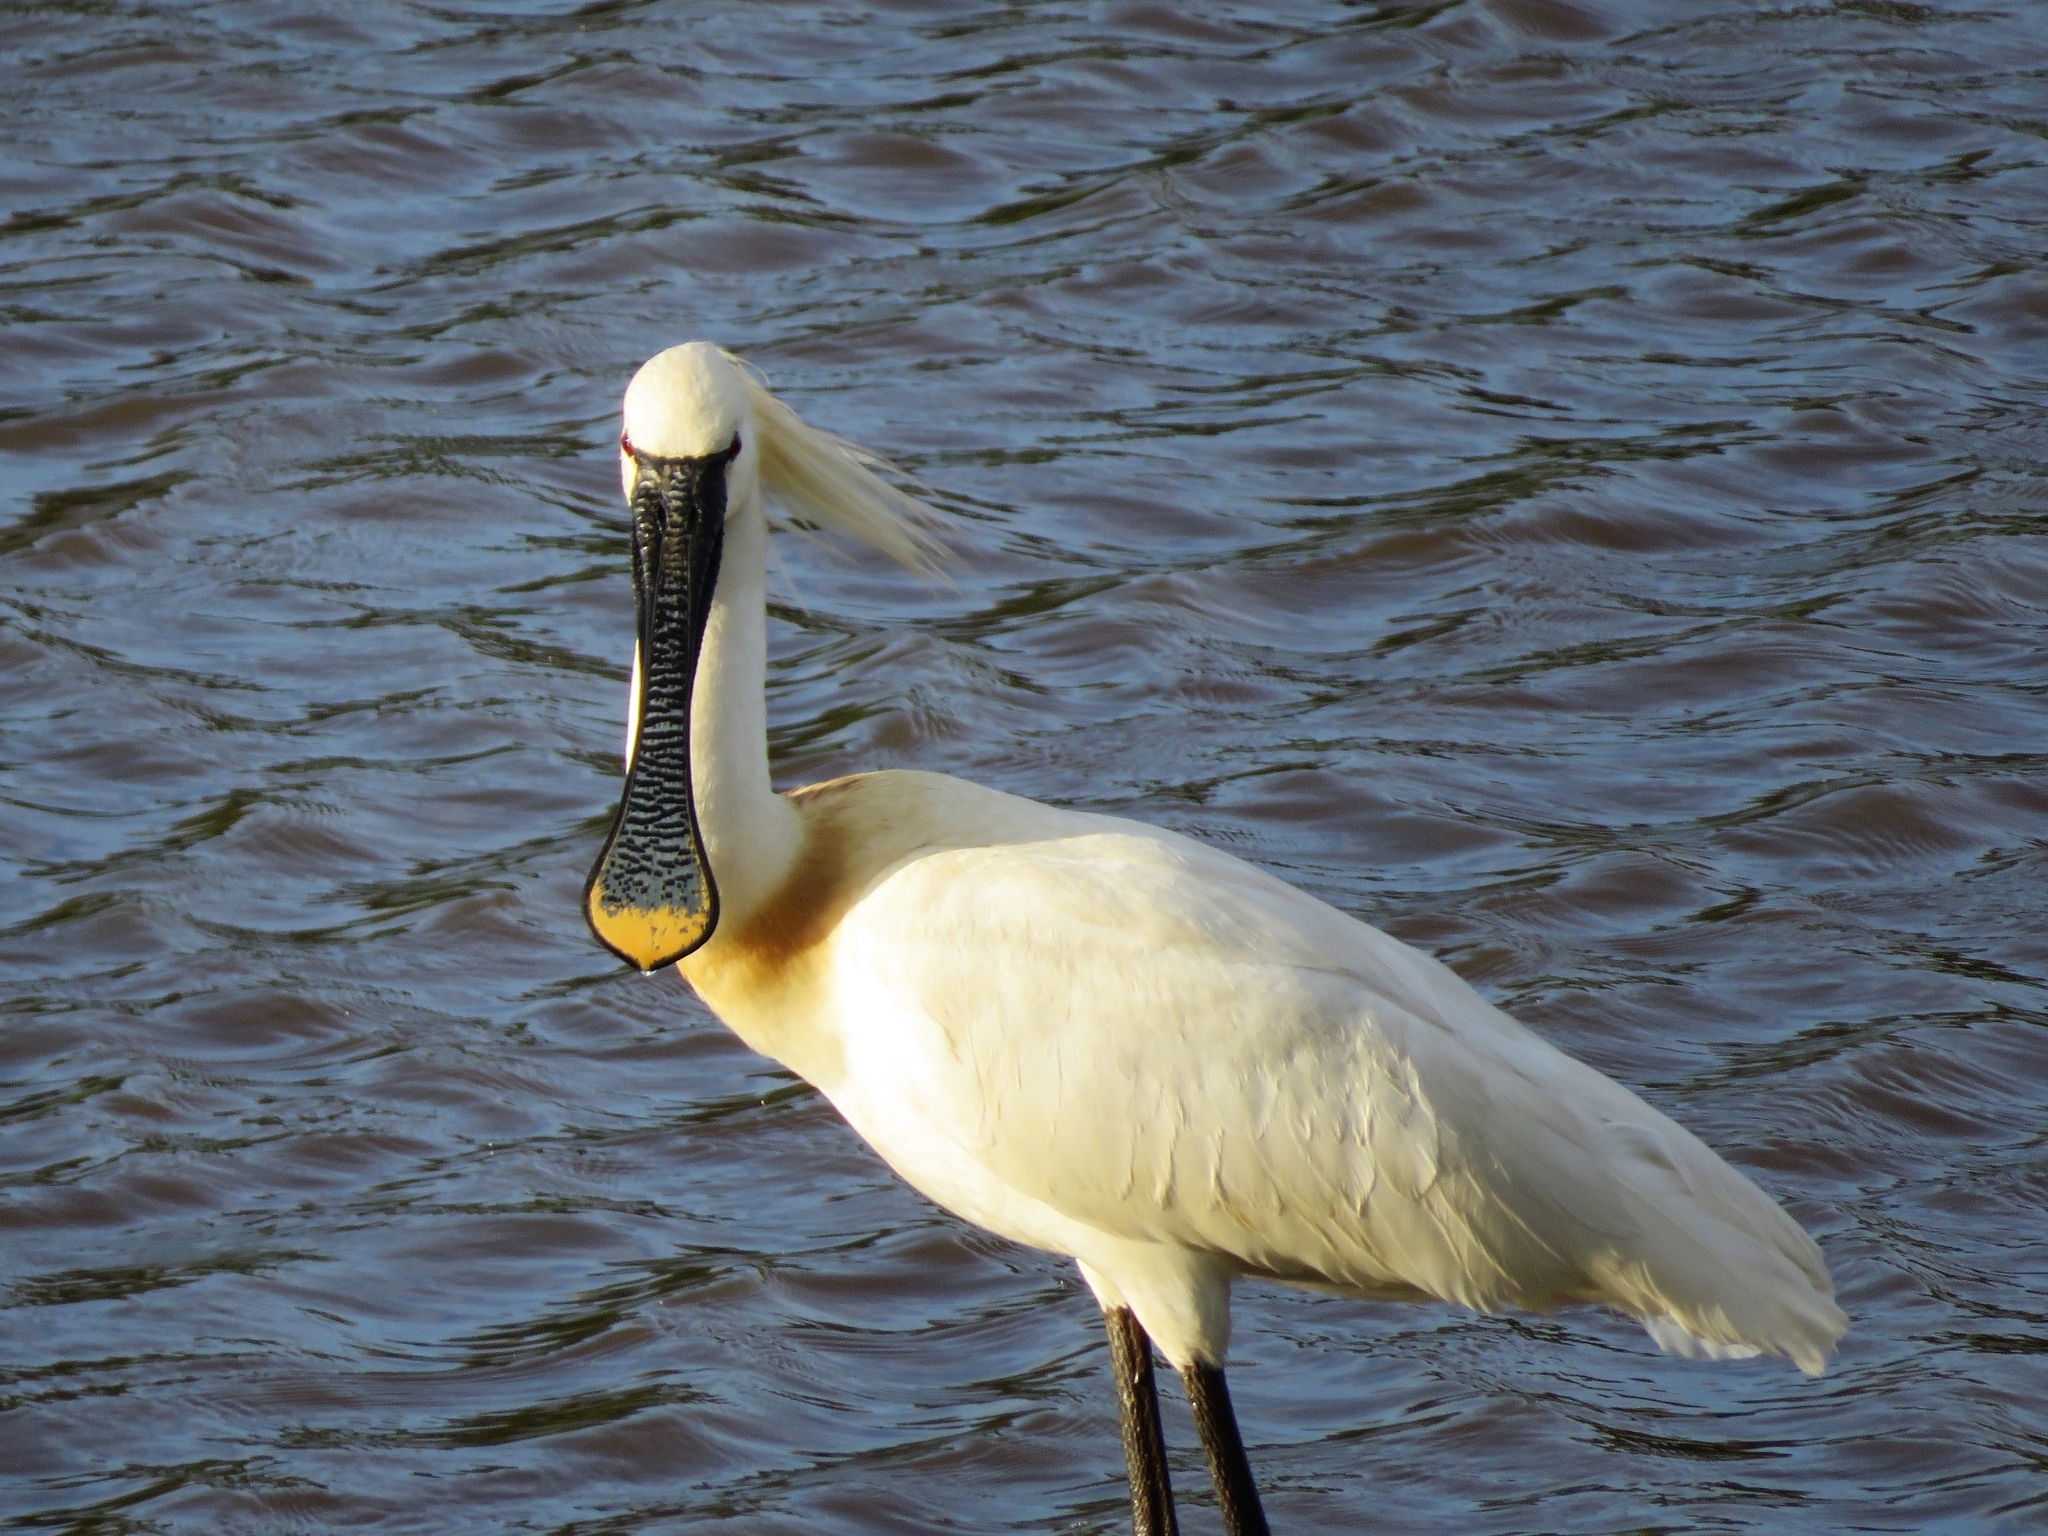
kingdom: Animalia
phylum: Chordata
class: Aves
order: Pelecaniformes
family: Threskiornithidae
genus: Platalea
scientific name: Platalea leucorodia
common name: Eurasian spoonbill
